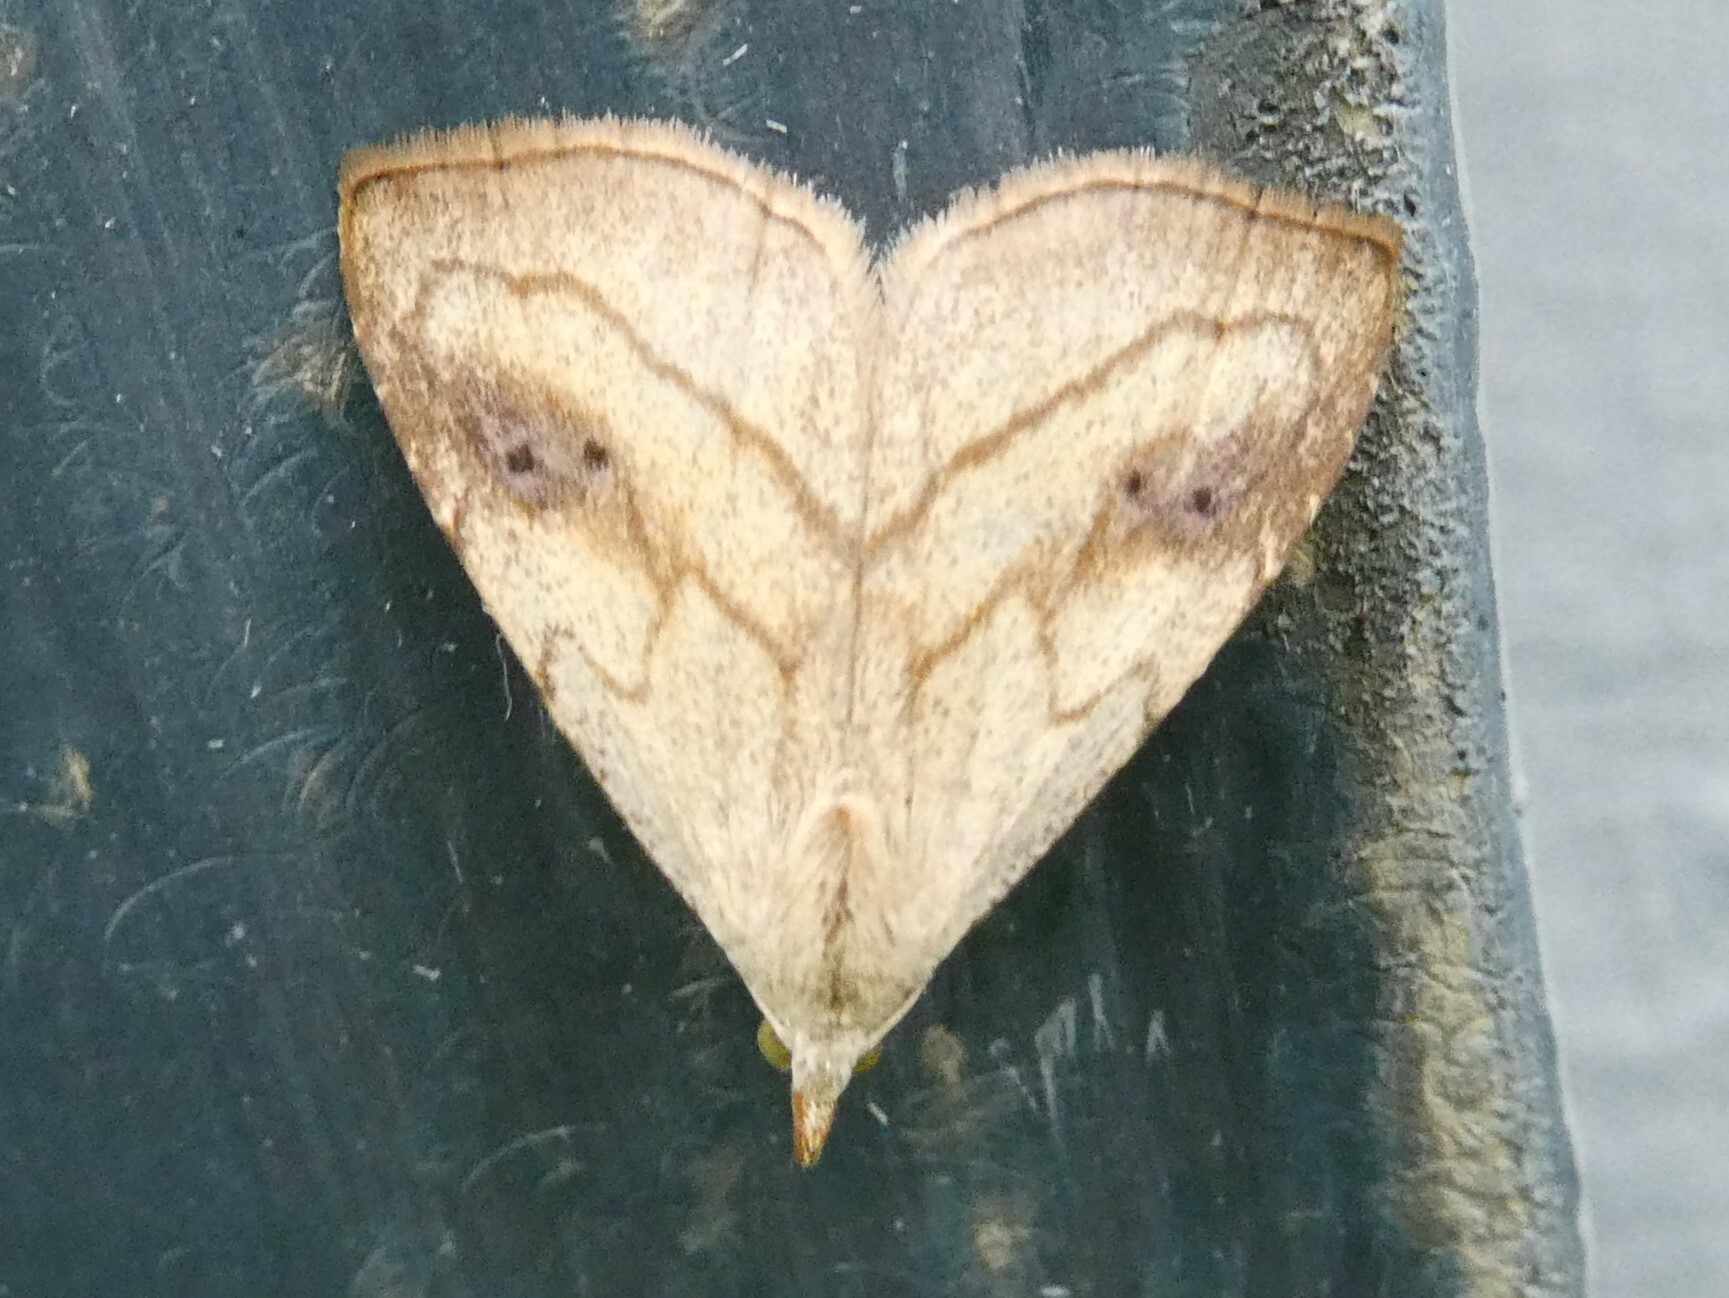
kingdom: Animalia
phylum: Arthropoda
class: Insecta
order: Lepidoptera
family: Erebidae
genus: Rivula
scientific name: Rivula propinqualis
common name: Spotted grass moth
